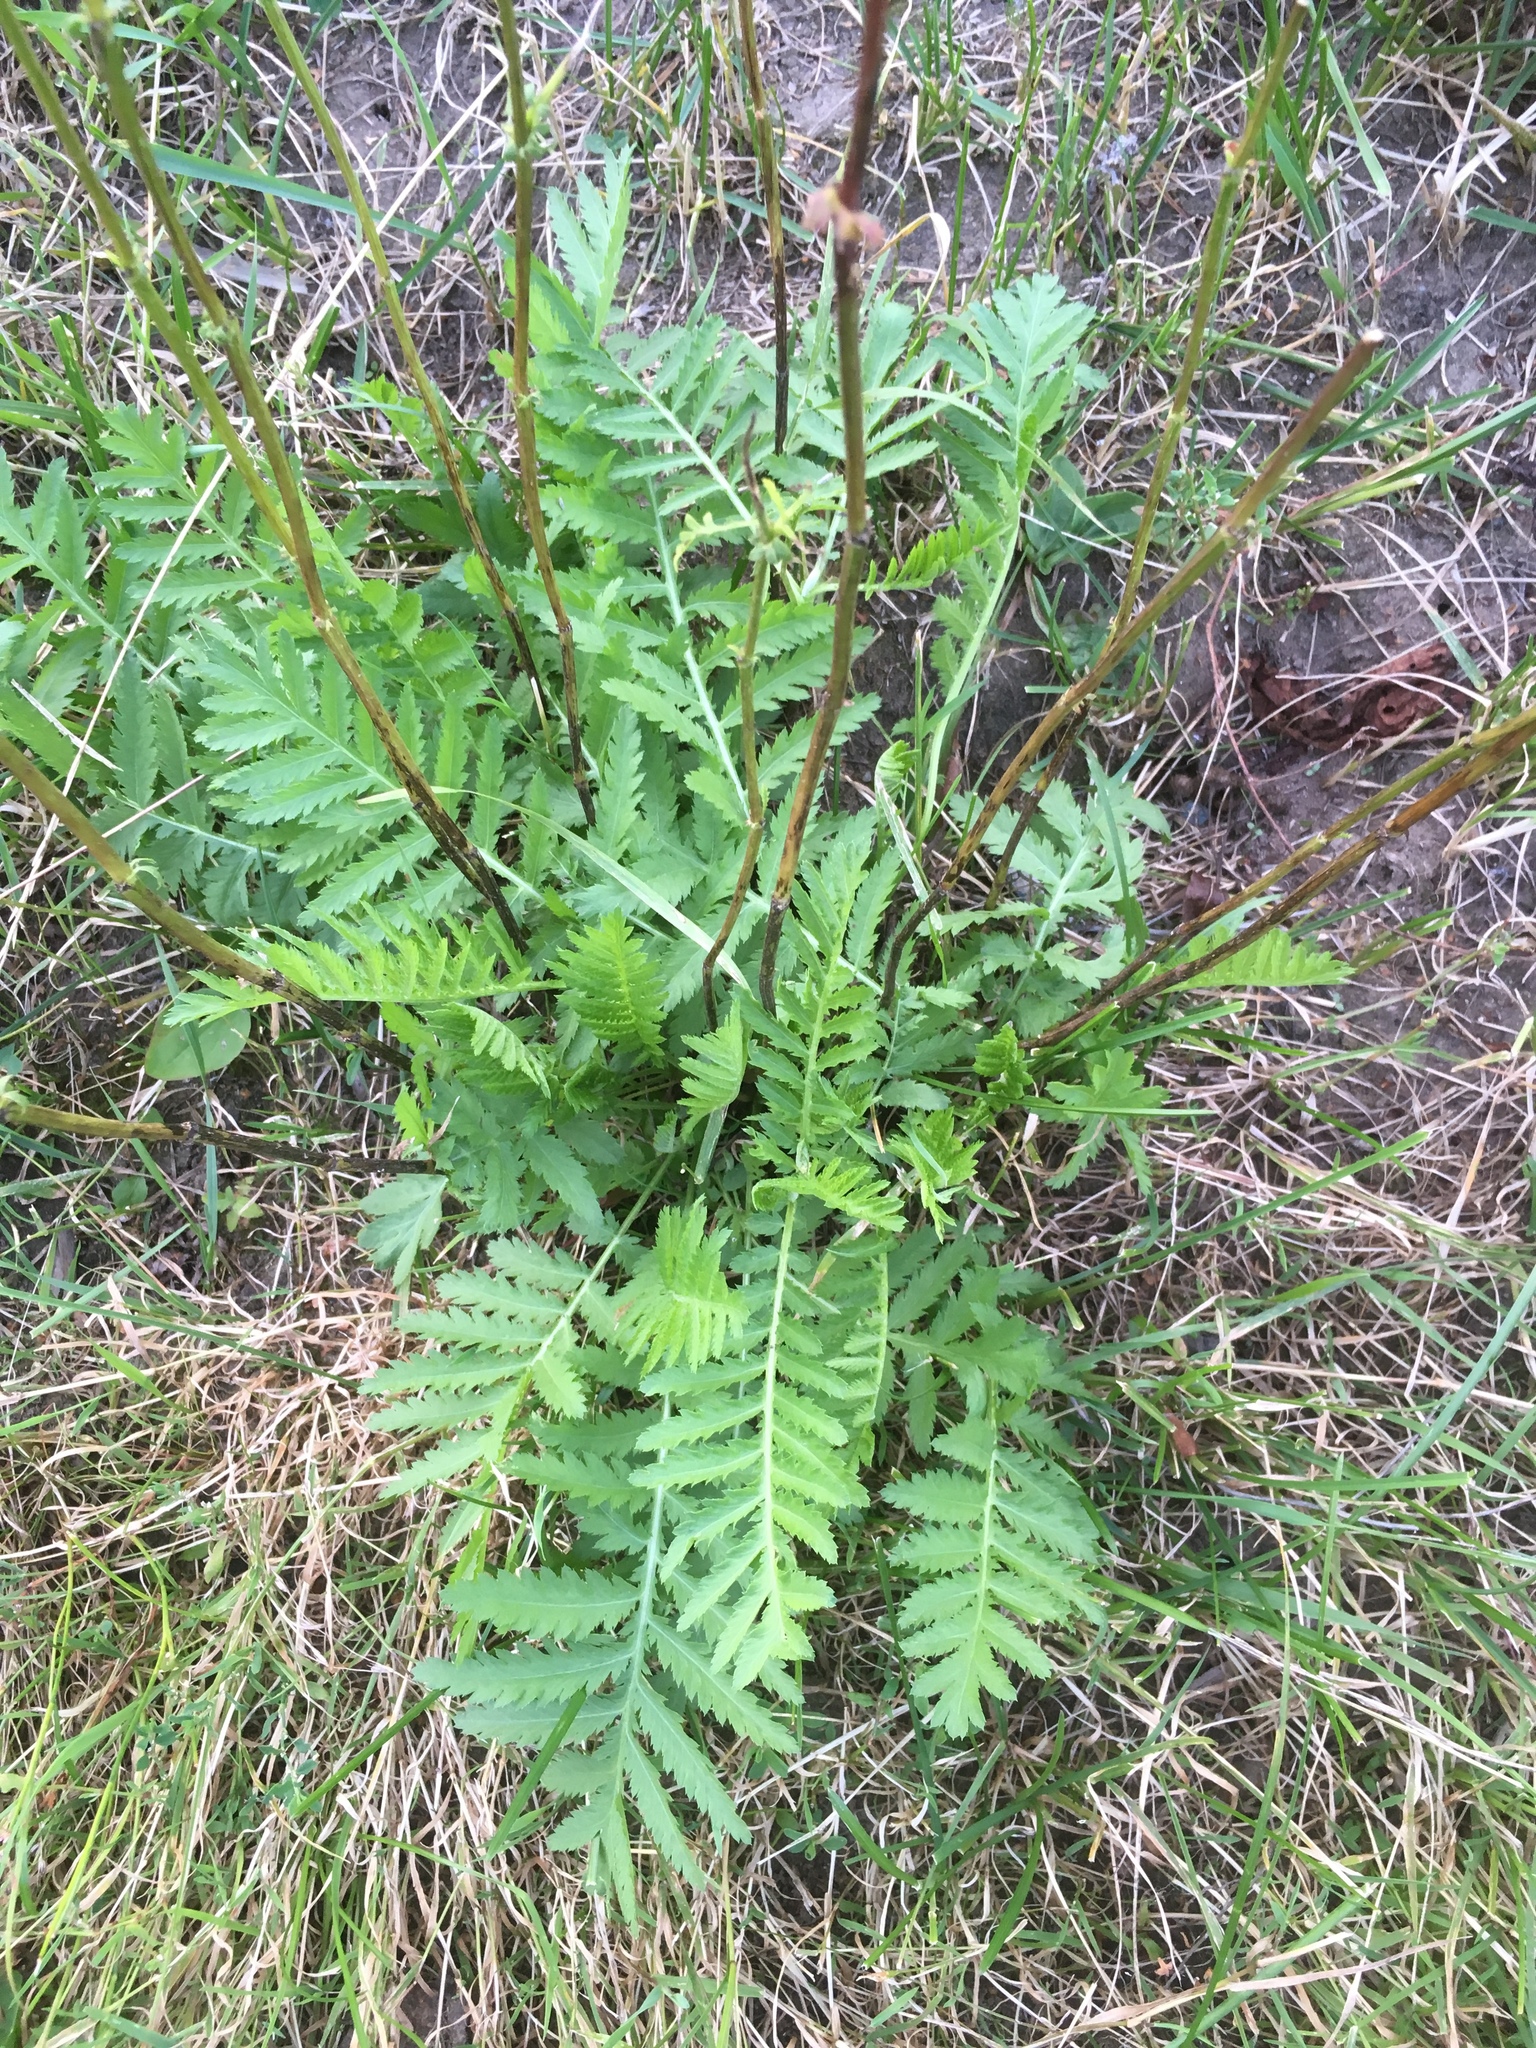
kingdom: Plantae
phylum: Tracheophyta
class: Magnoliopsida
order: Asterales
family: Asteraceae
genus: Achillea
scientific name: Achillea filipendulina
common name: Fernleaf yarrow
